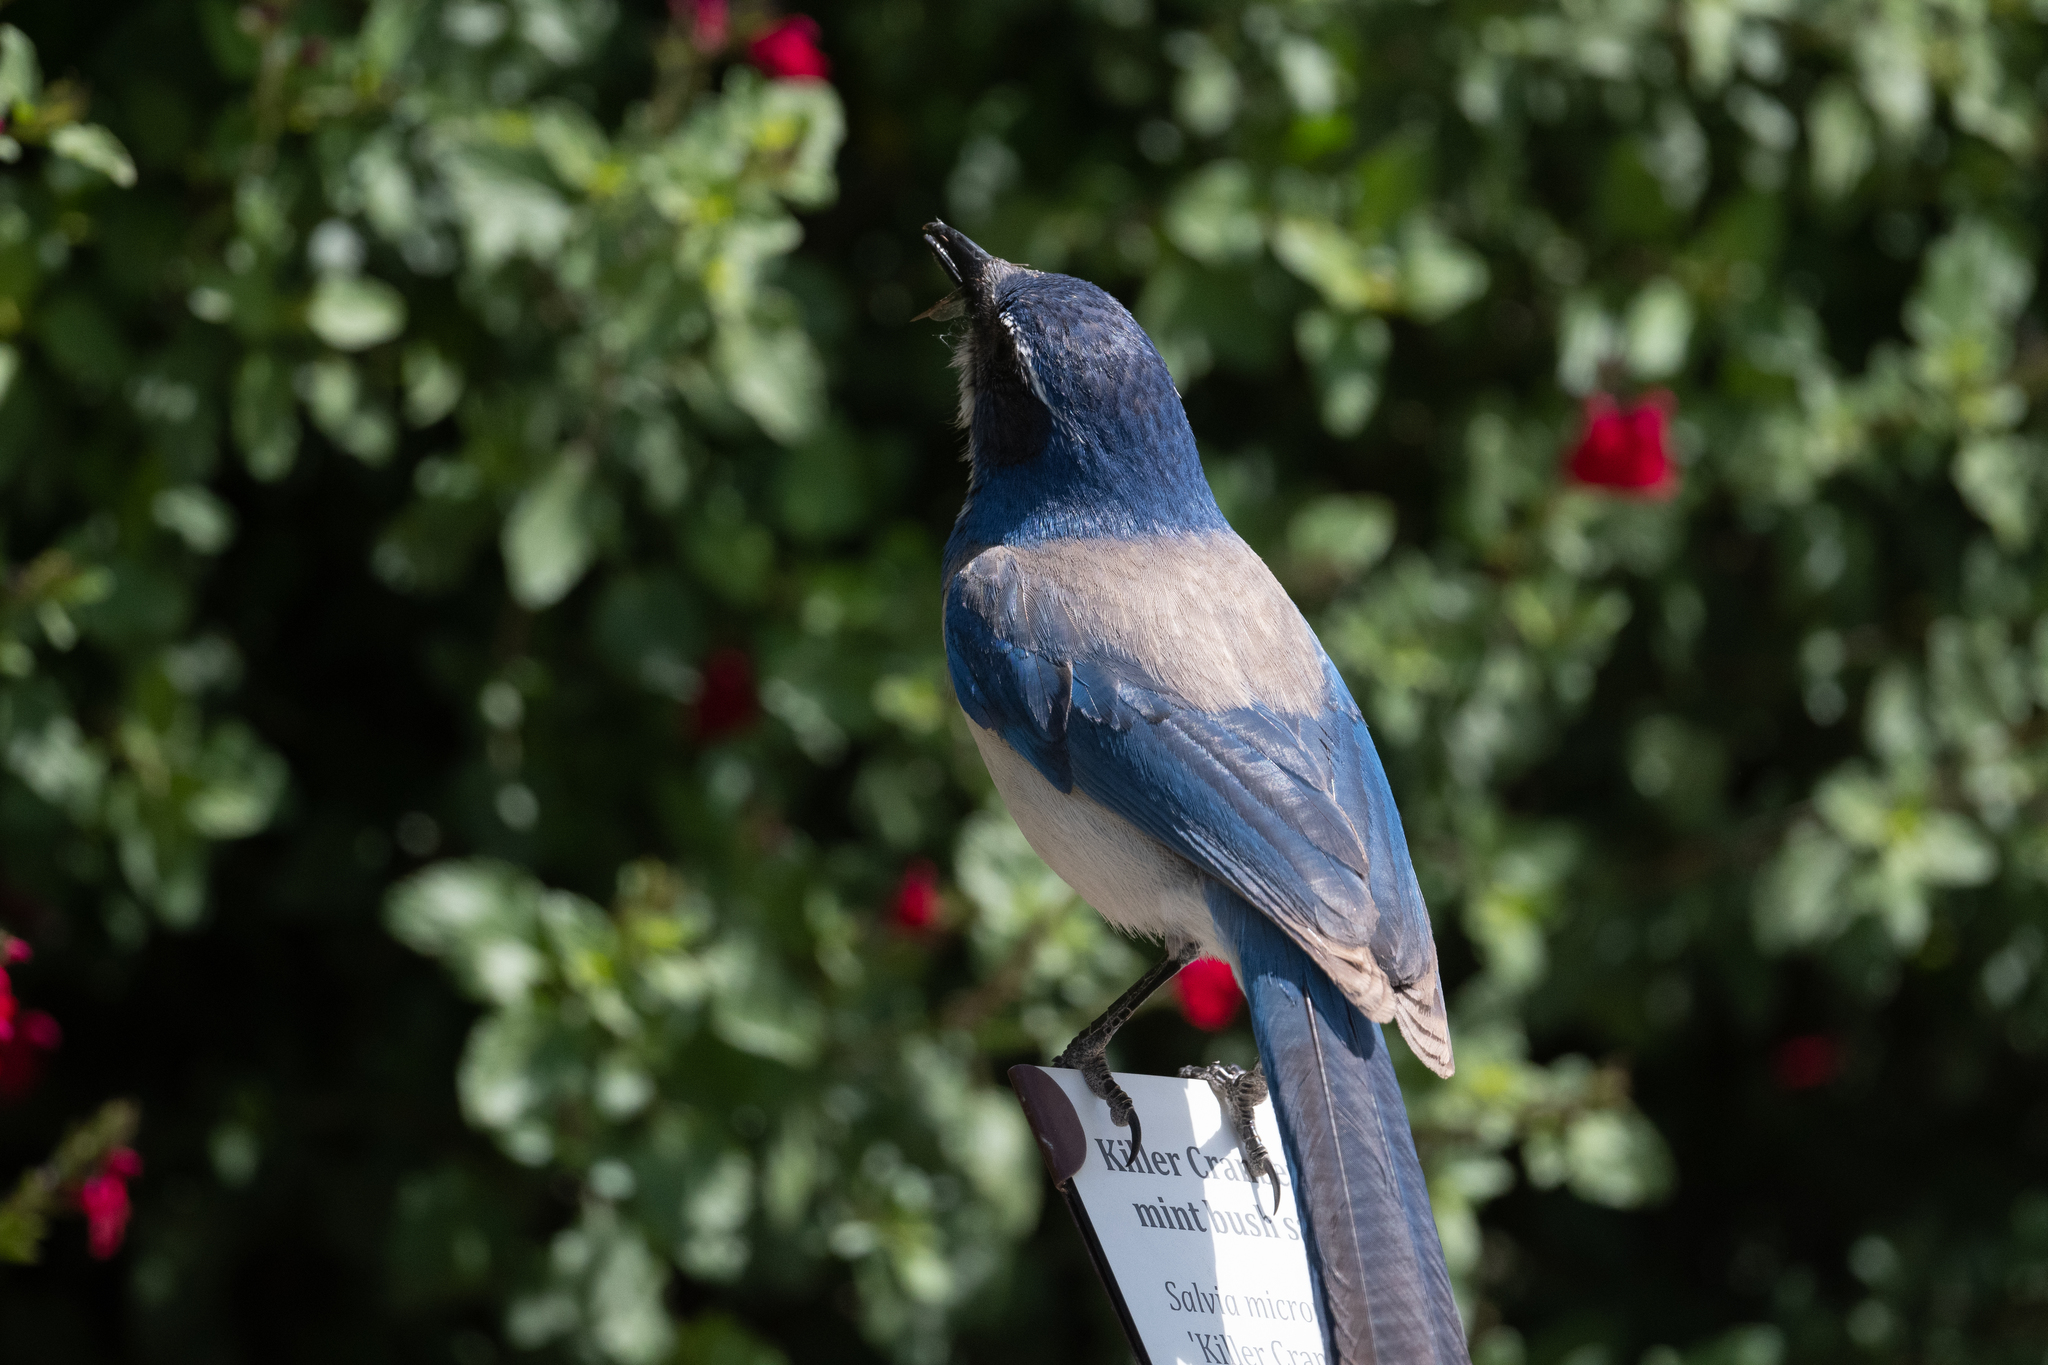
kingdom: Animalia
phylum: Chordata
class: Aves
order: Passeriformes
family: Corvidae
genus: Aphelocoma
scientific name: Aphelocoma californica
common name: California scrub-jay
